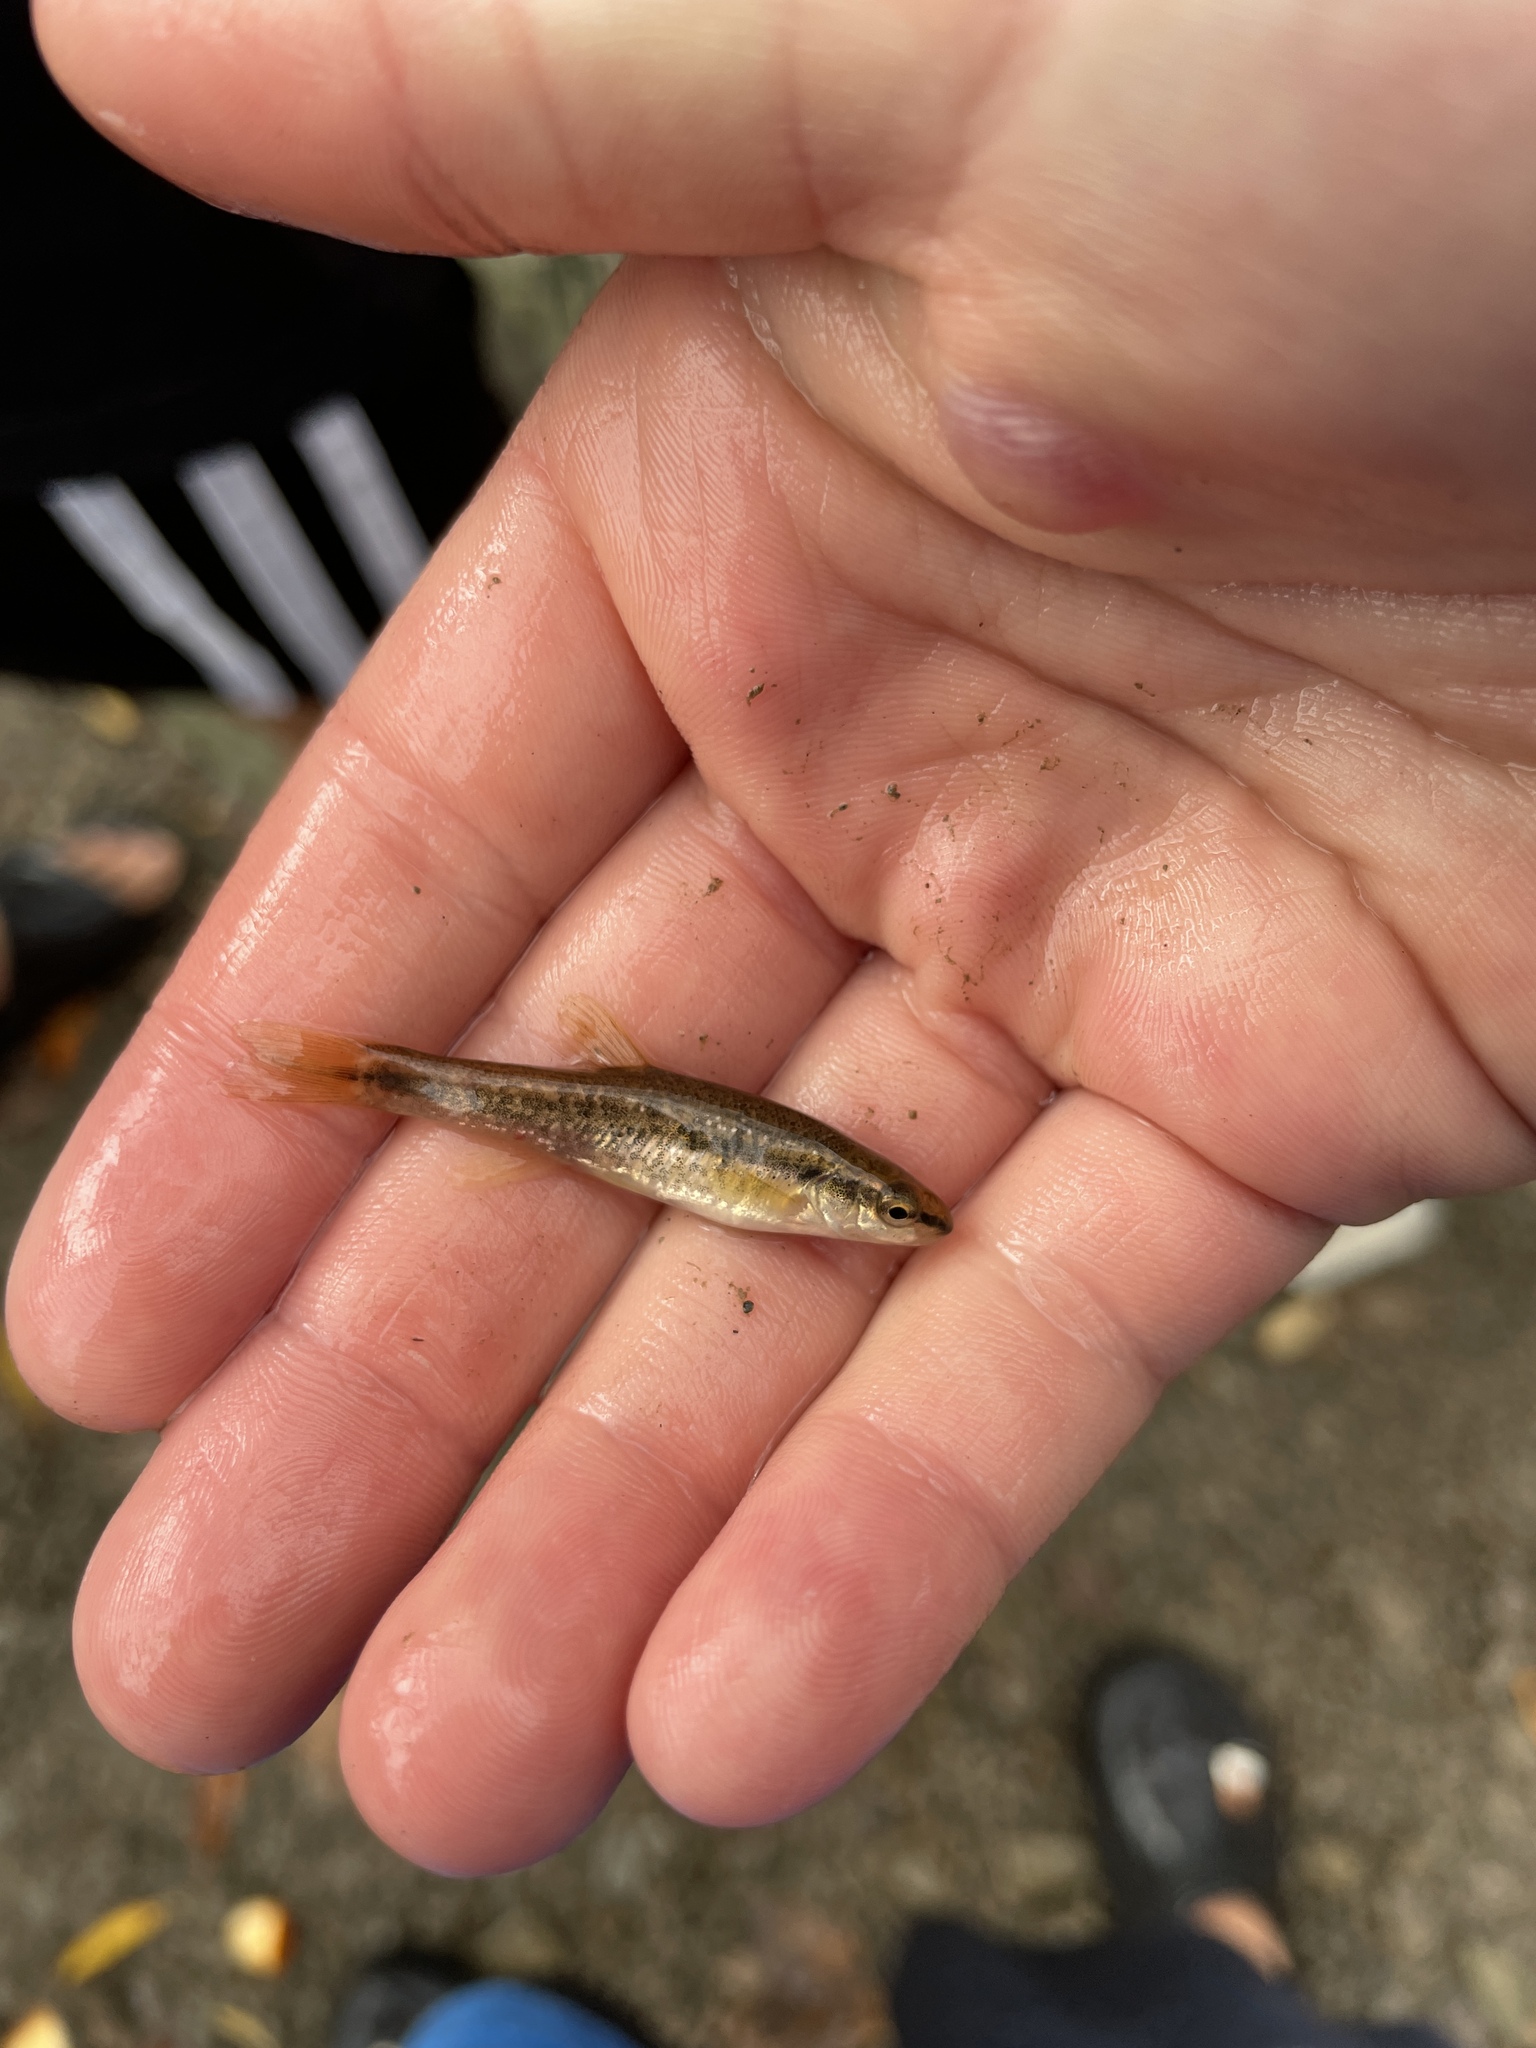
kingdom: Animalia
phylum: Chordata
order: Cypriniformes
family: Cyprinidae
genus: Rhinichthys
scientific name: Rhinichthys obtusus
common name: Western blacknose dace
